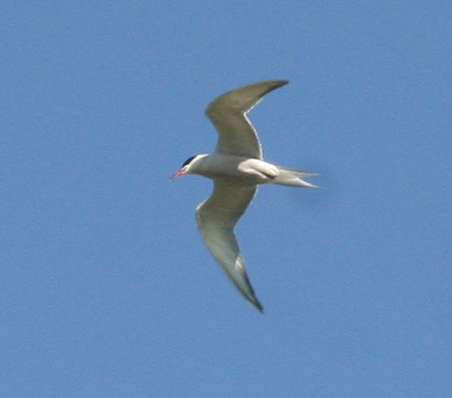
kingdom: Animalia
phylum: Chordata
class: Aves
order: Charadriiformes
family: Laridae
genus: Sterna
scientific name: Sterna hirundo
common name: Common tern
